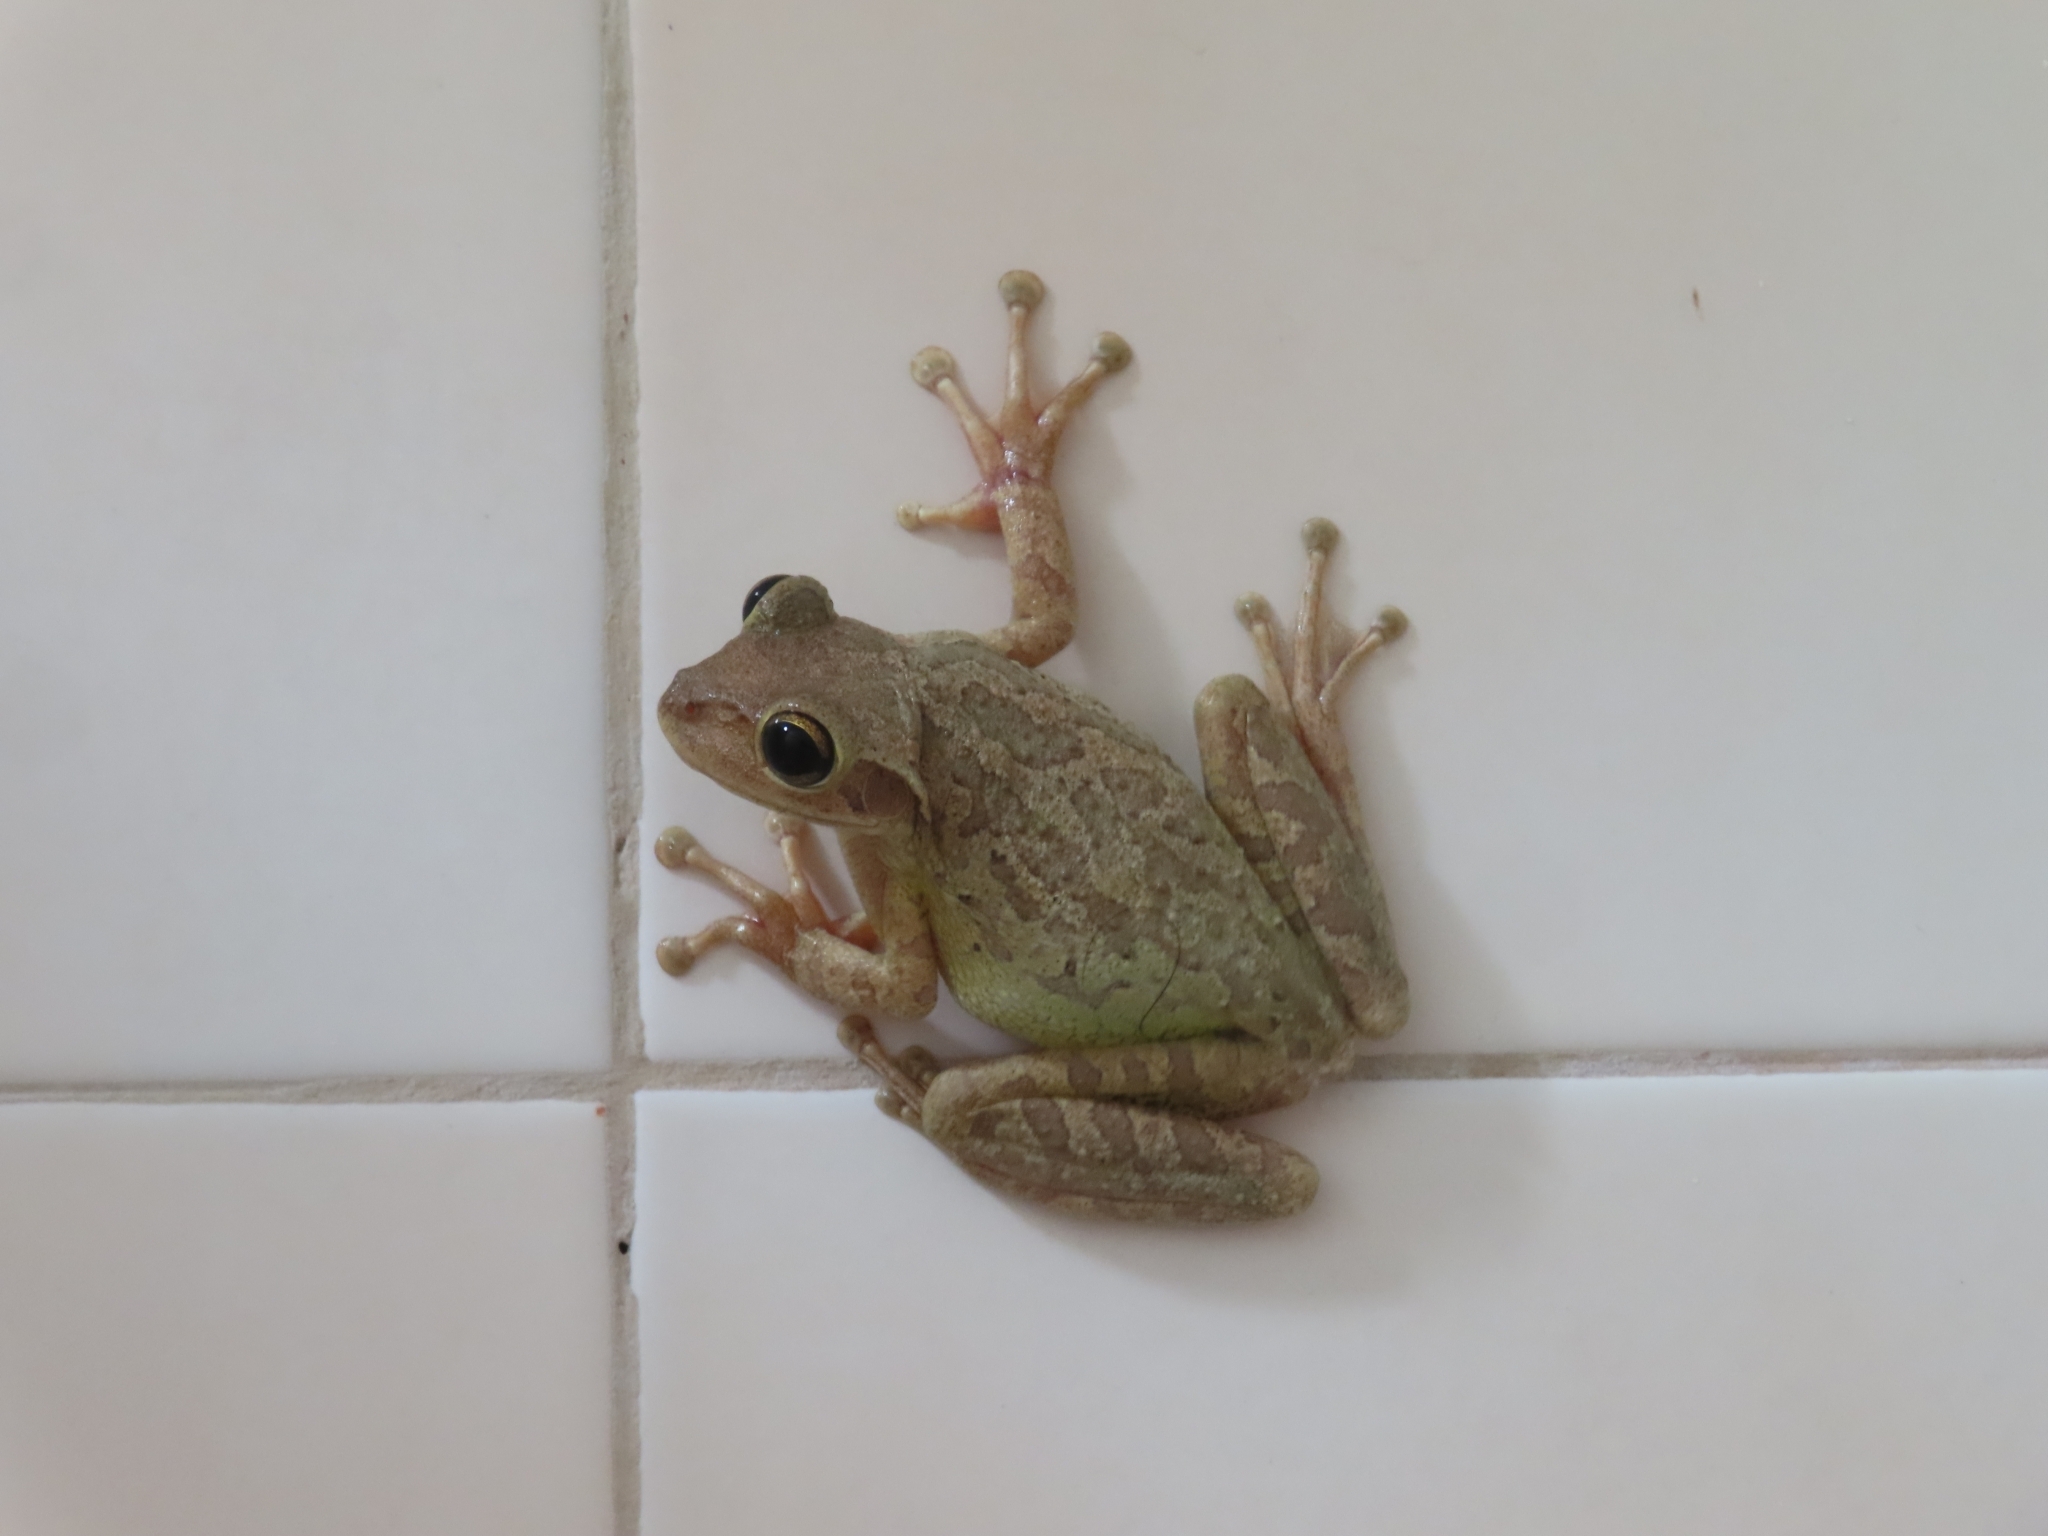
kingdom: Animalia
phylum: Chordata
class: Amphibia
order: Anura
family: Hylidae
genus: Osteopilus
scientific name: Osteopilus septentrionalis
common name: Cuban treefrog
